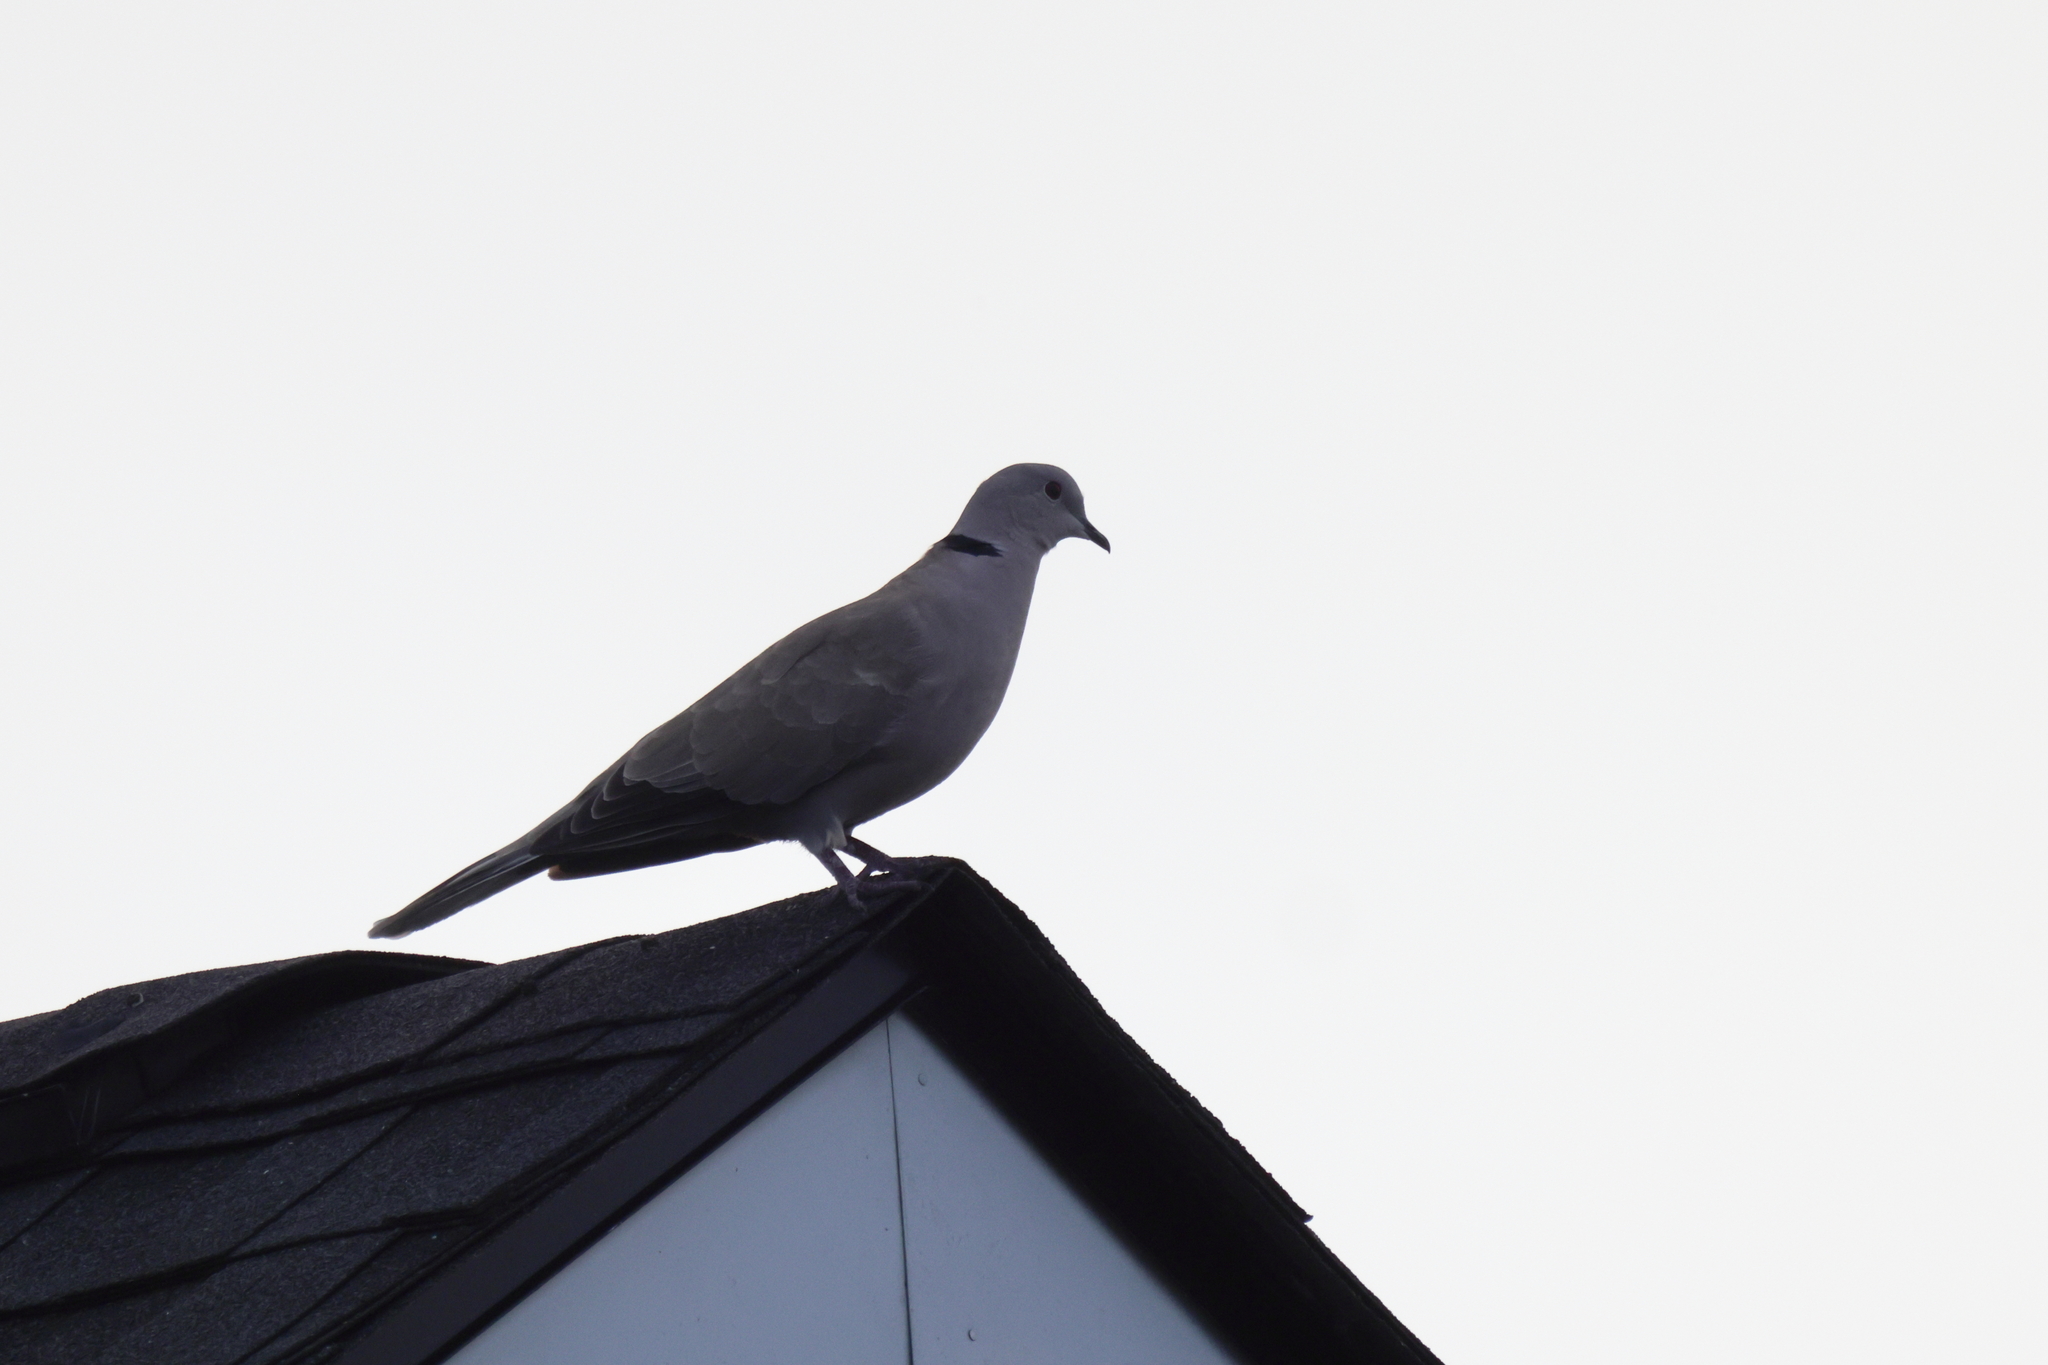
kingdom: Animalia
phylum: Chordata
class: Aves
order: Columbiformes
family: Columbidae
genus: Streptopelia
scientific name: Streptopelia decaocto
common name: Eurasian collared dove
